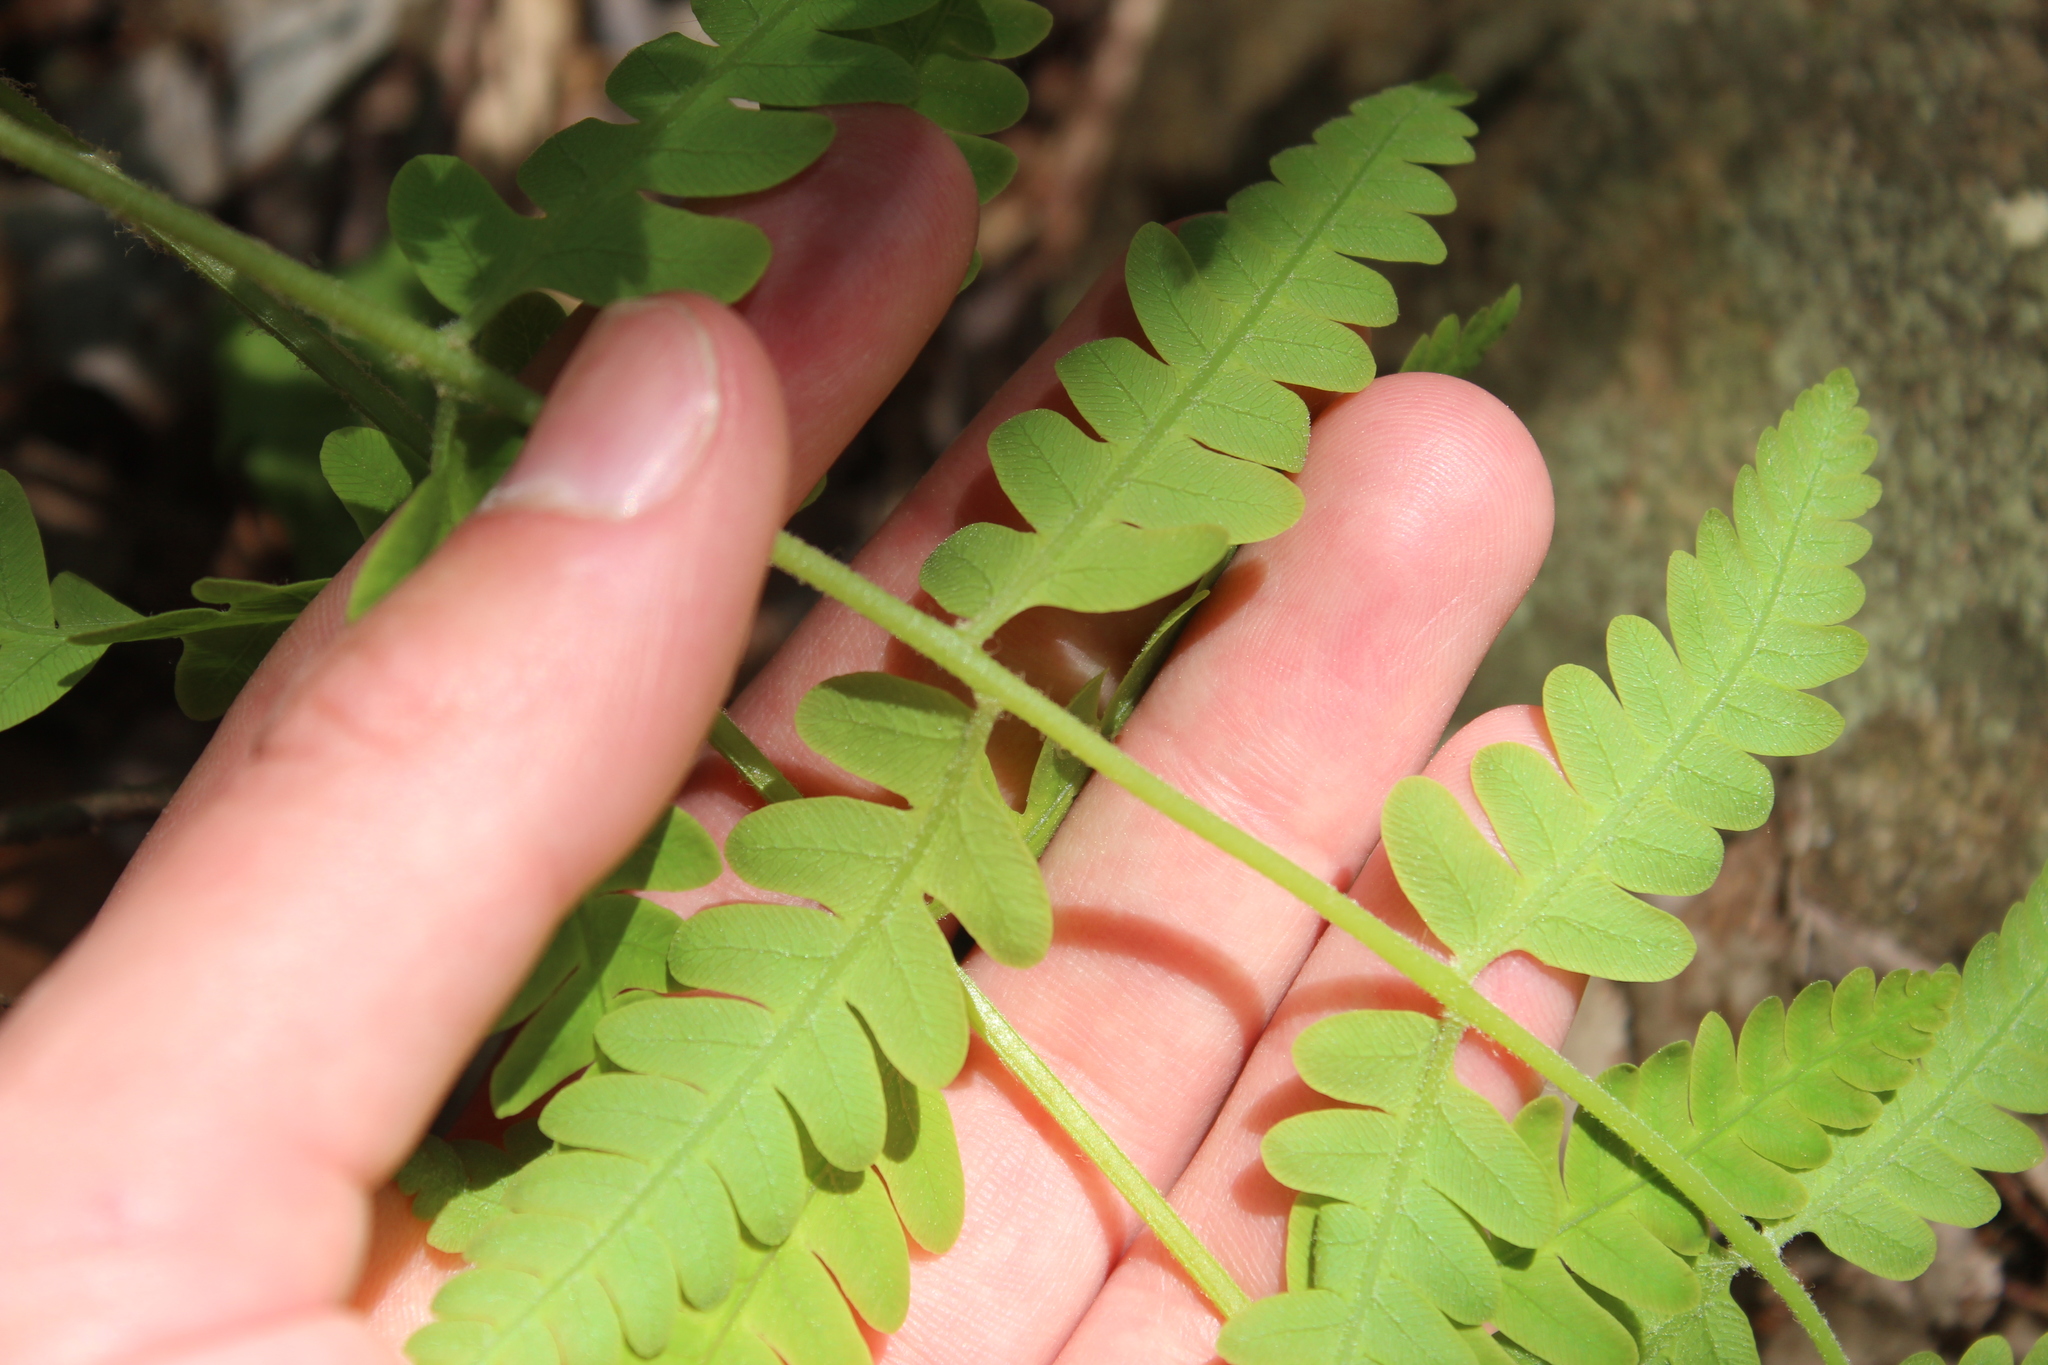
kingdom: Plantae
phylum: Tracheophyta
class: Polypodiopsida
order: Osmundales
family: Osmundaceae
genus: Claytosmunda
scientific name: Claytosmunda claytoniana
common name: Clayton's fern
